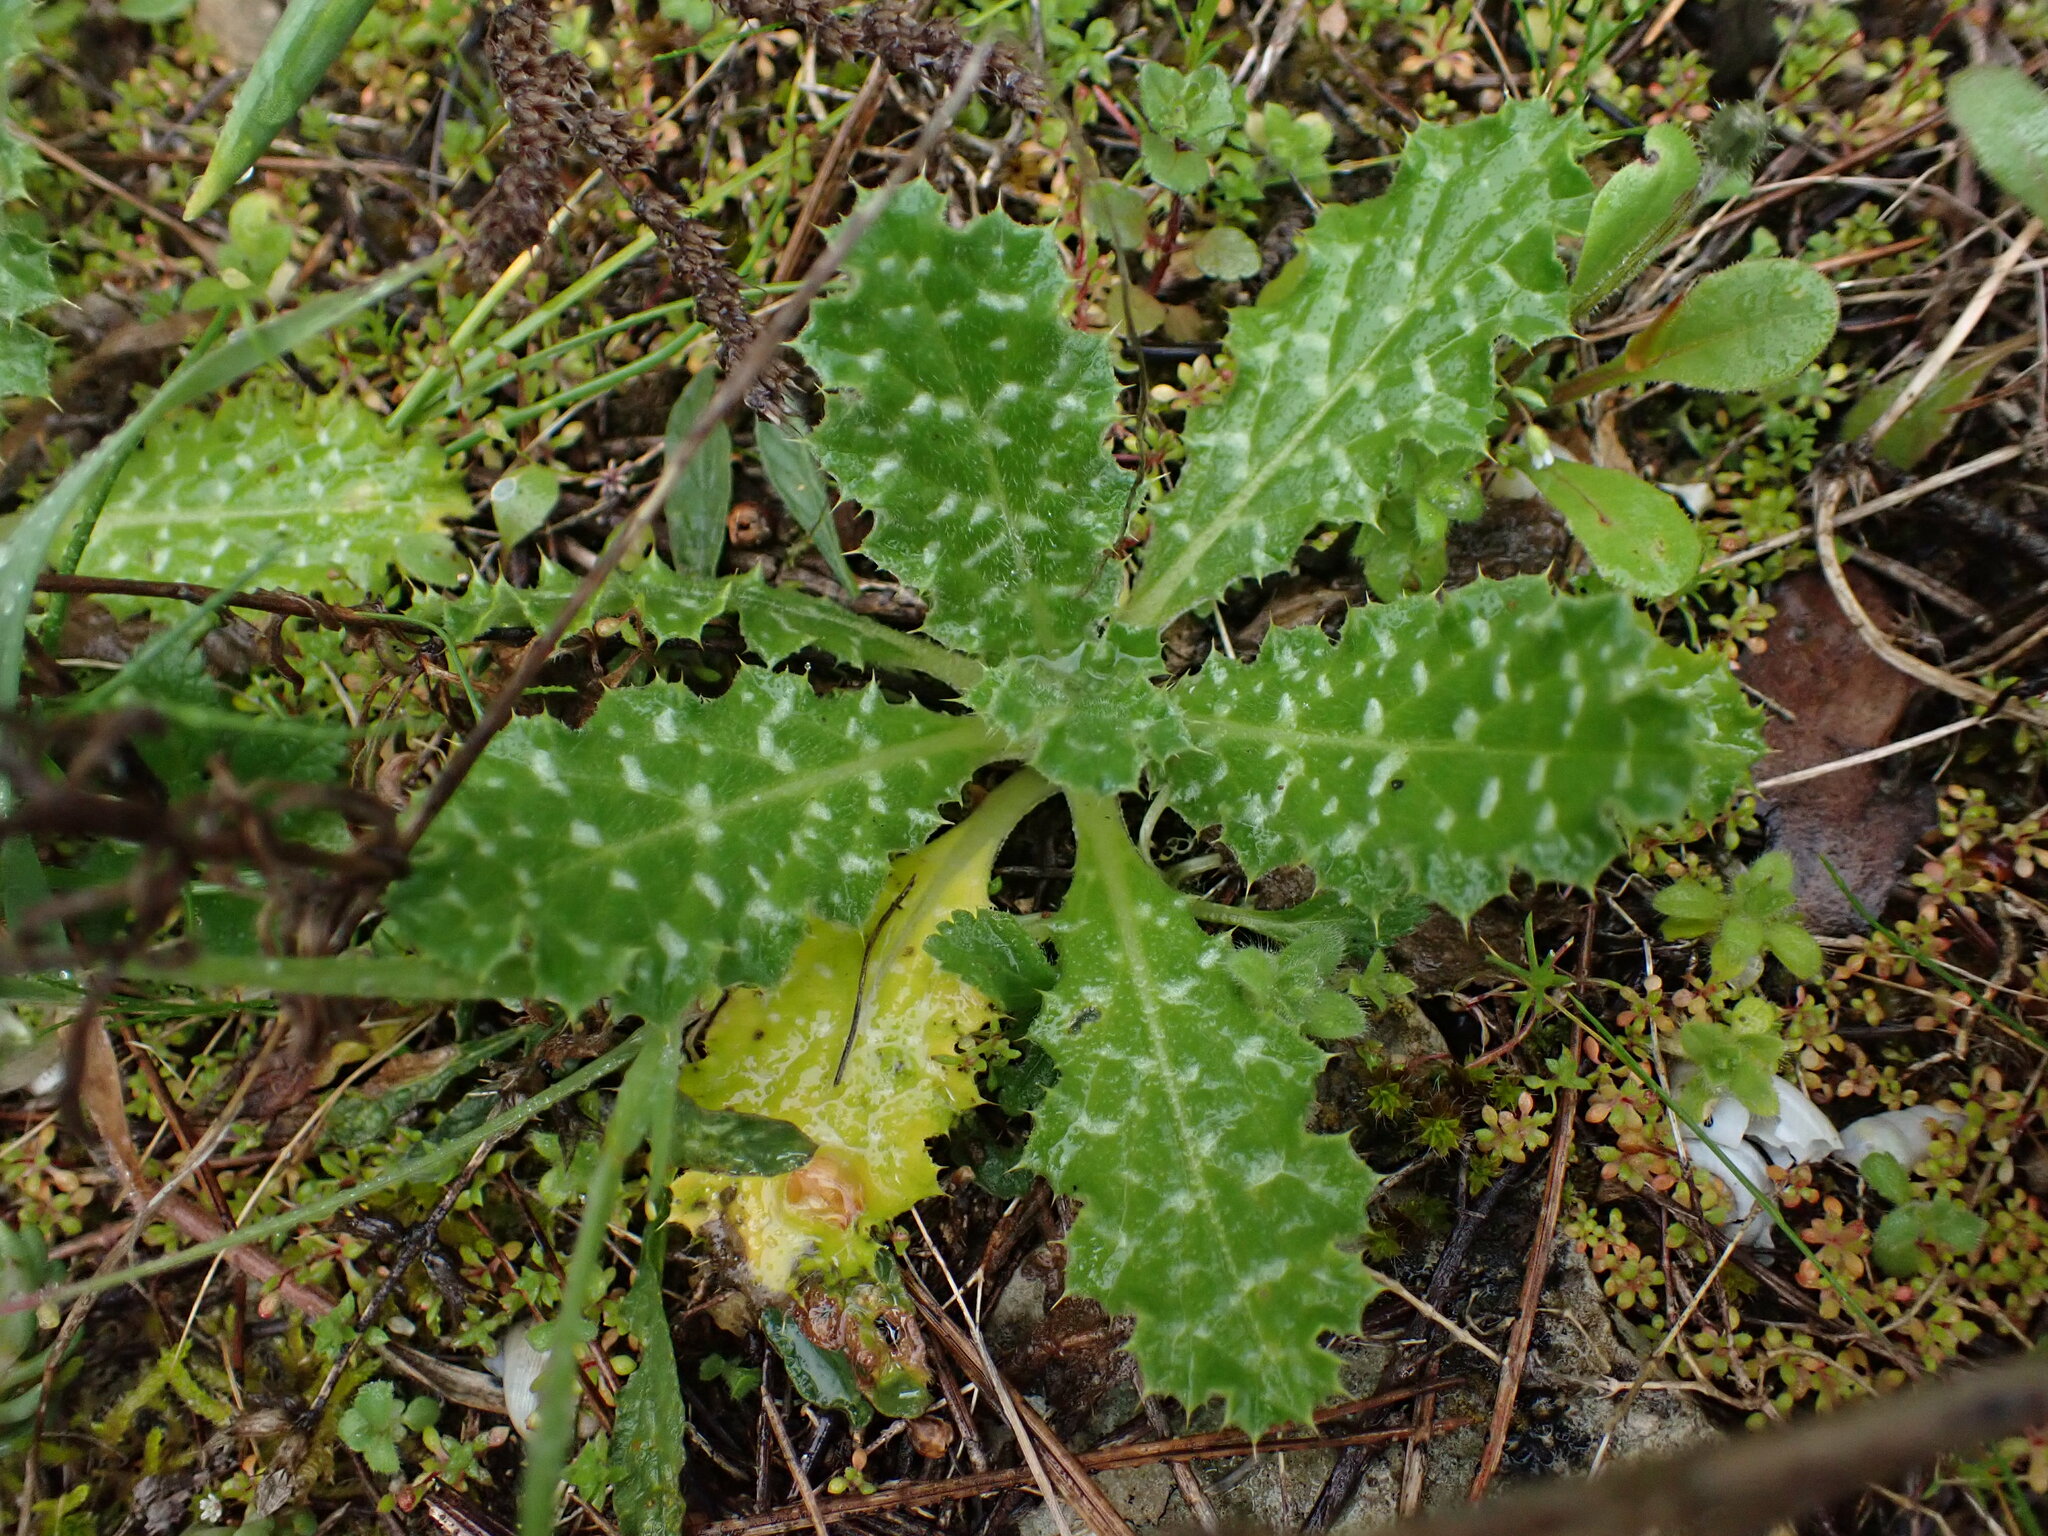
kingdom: Plantae
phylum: Tracheophyta
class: Magnoliopsida
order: Asterales
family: Asteraceae
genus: Tyrimnus
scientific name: Tyrimnus leucographus
